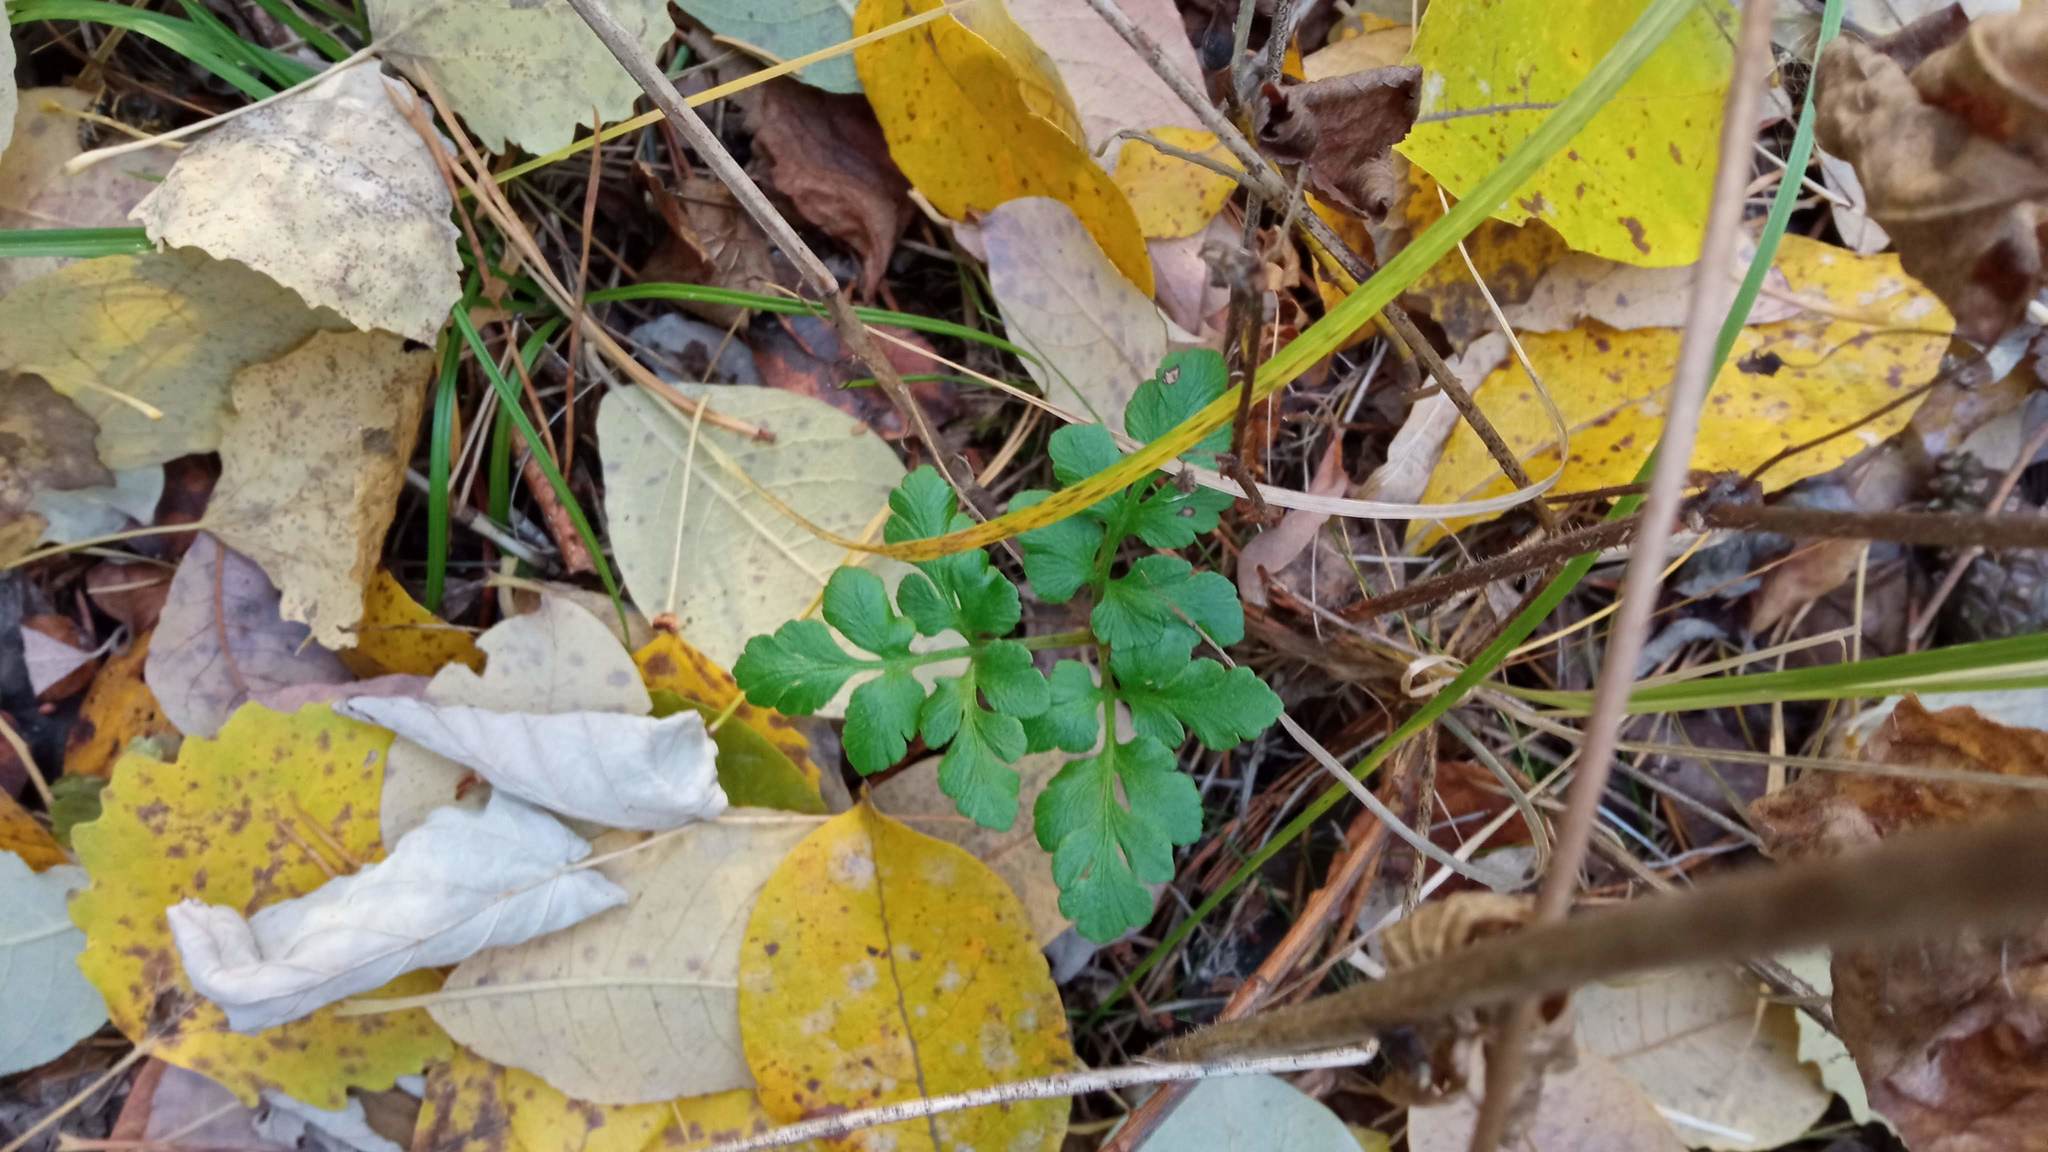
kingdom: Plantae
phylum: Tracheophyta
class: Polypodiopsida
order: Ophioglossales
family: Ophioglossaceae
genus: Sceptridium
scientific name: Sceptridium multifidum
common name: Leathery grape fern
